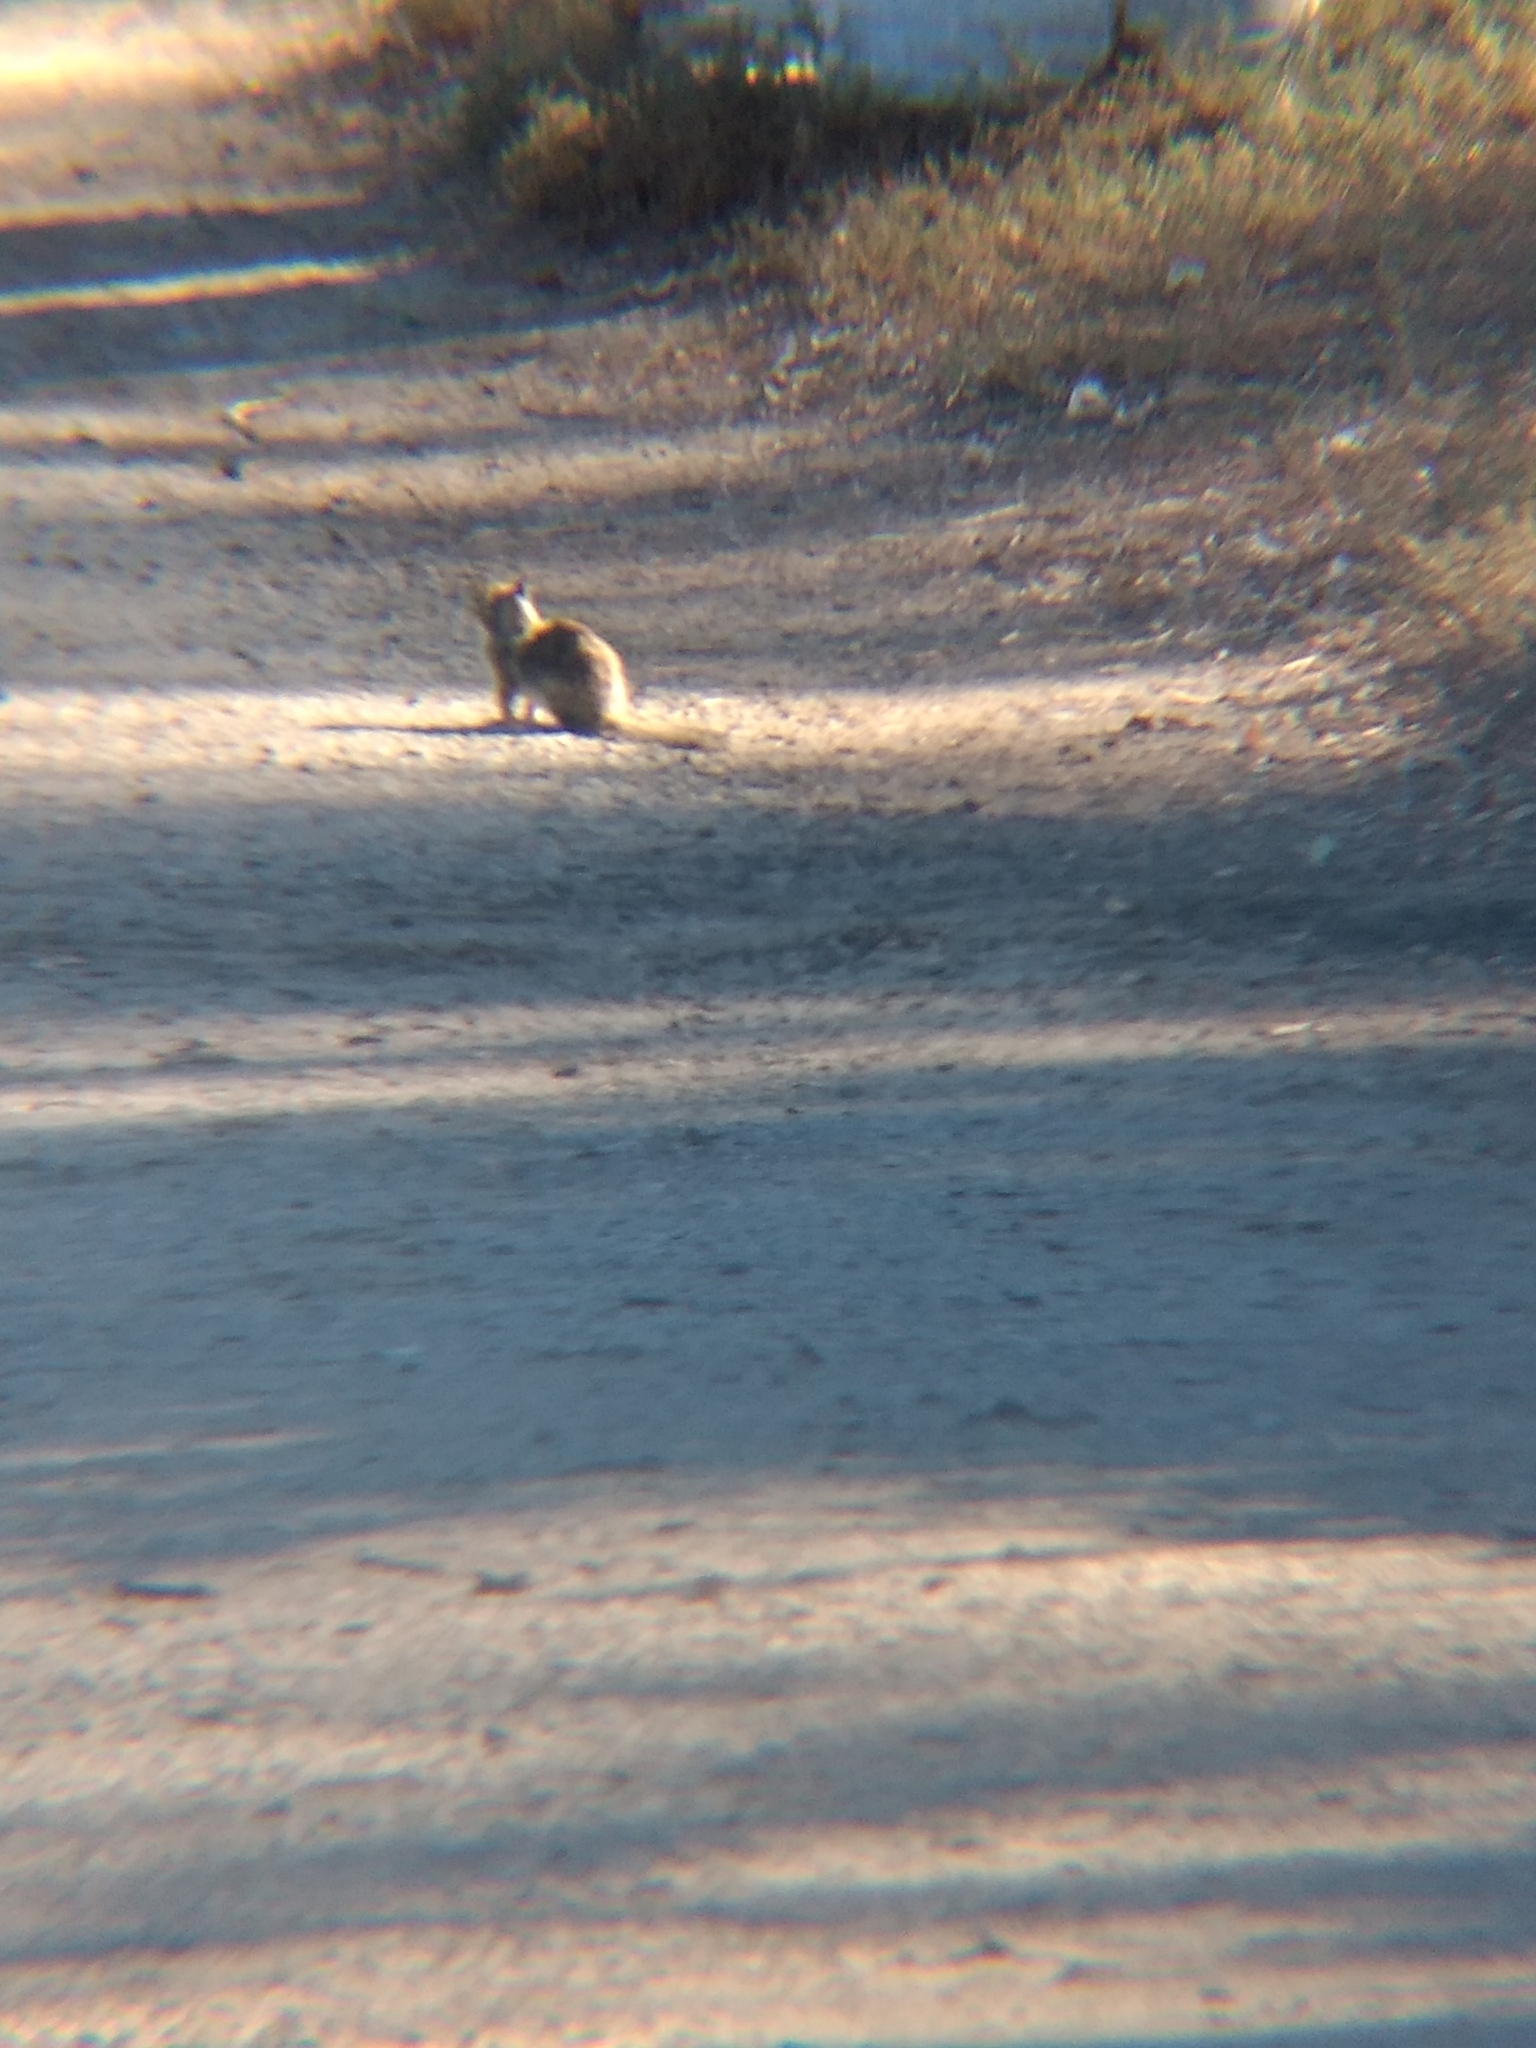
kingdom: Animalia
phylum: Chordata
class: Mammalia
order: Rodentia
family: Sciuridae
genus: Otospermophilus
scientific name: Otospermophilus beecheyi
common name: California ground squirrel
